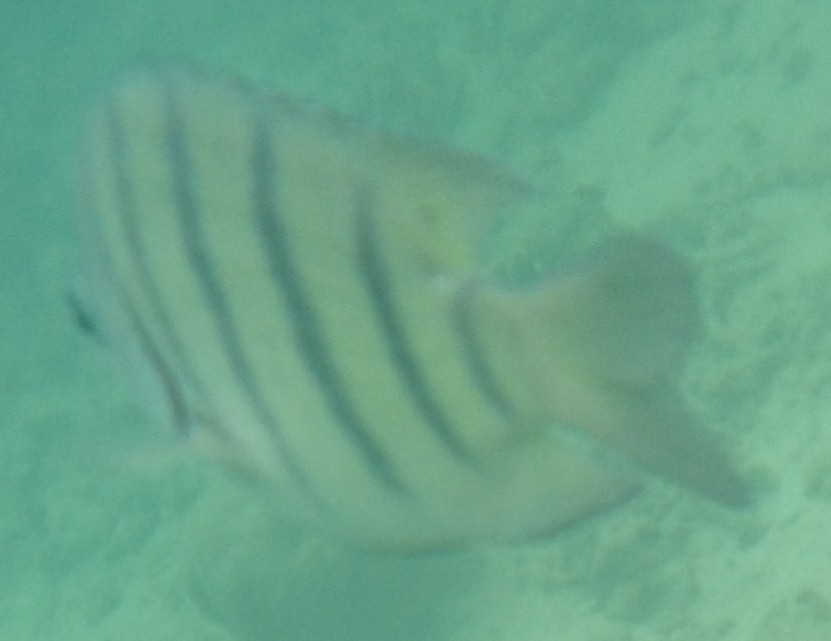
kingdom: Animalia
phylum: Chordata
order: Perciformes
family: Pomacentridae
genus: Abudefduf
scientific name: Abudefduf bengalensis
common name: Bengal sergeant
